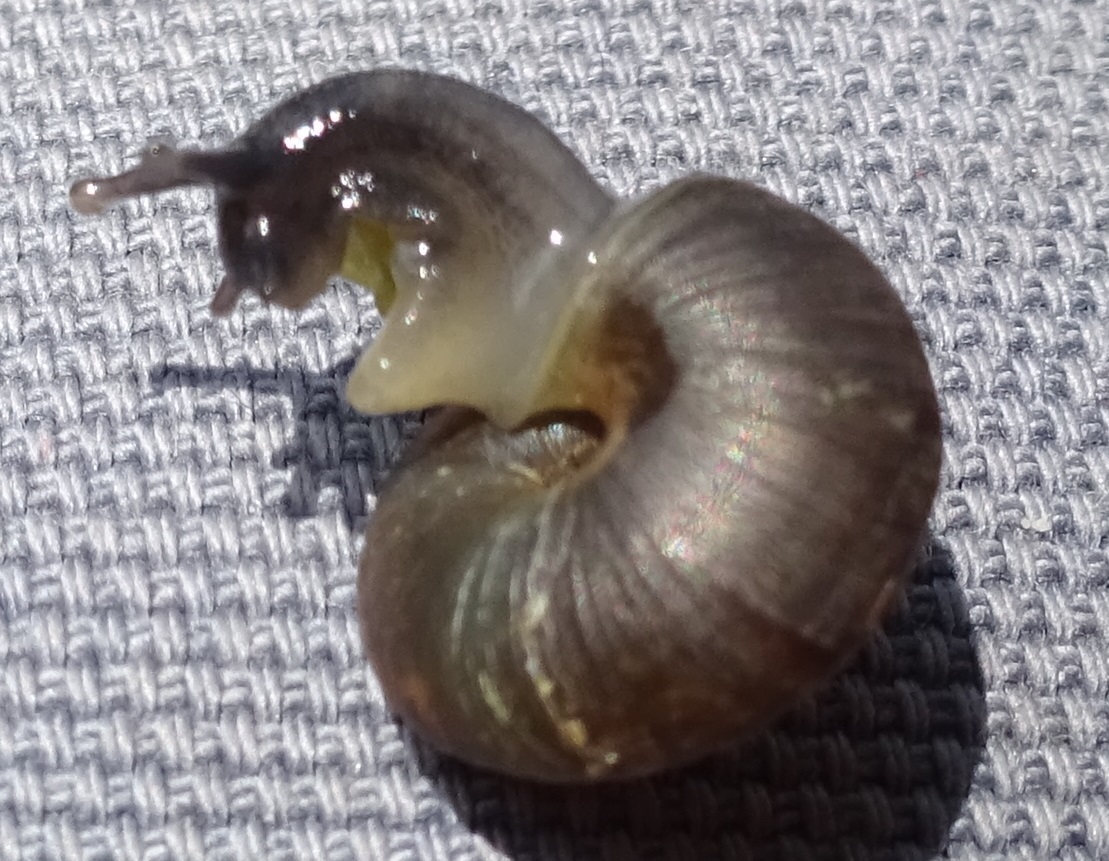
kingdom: Animalia
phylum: Mollusca
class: Gastropoda
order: Stylommatophora
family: Hygromiidae
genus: Trochulus
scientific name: Trochulus striolatus
